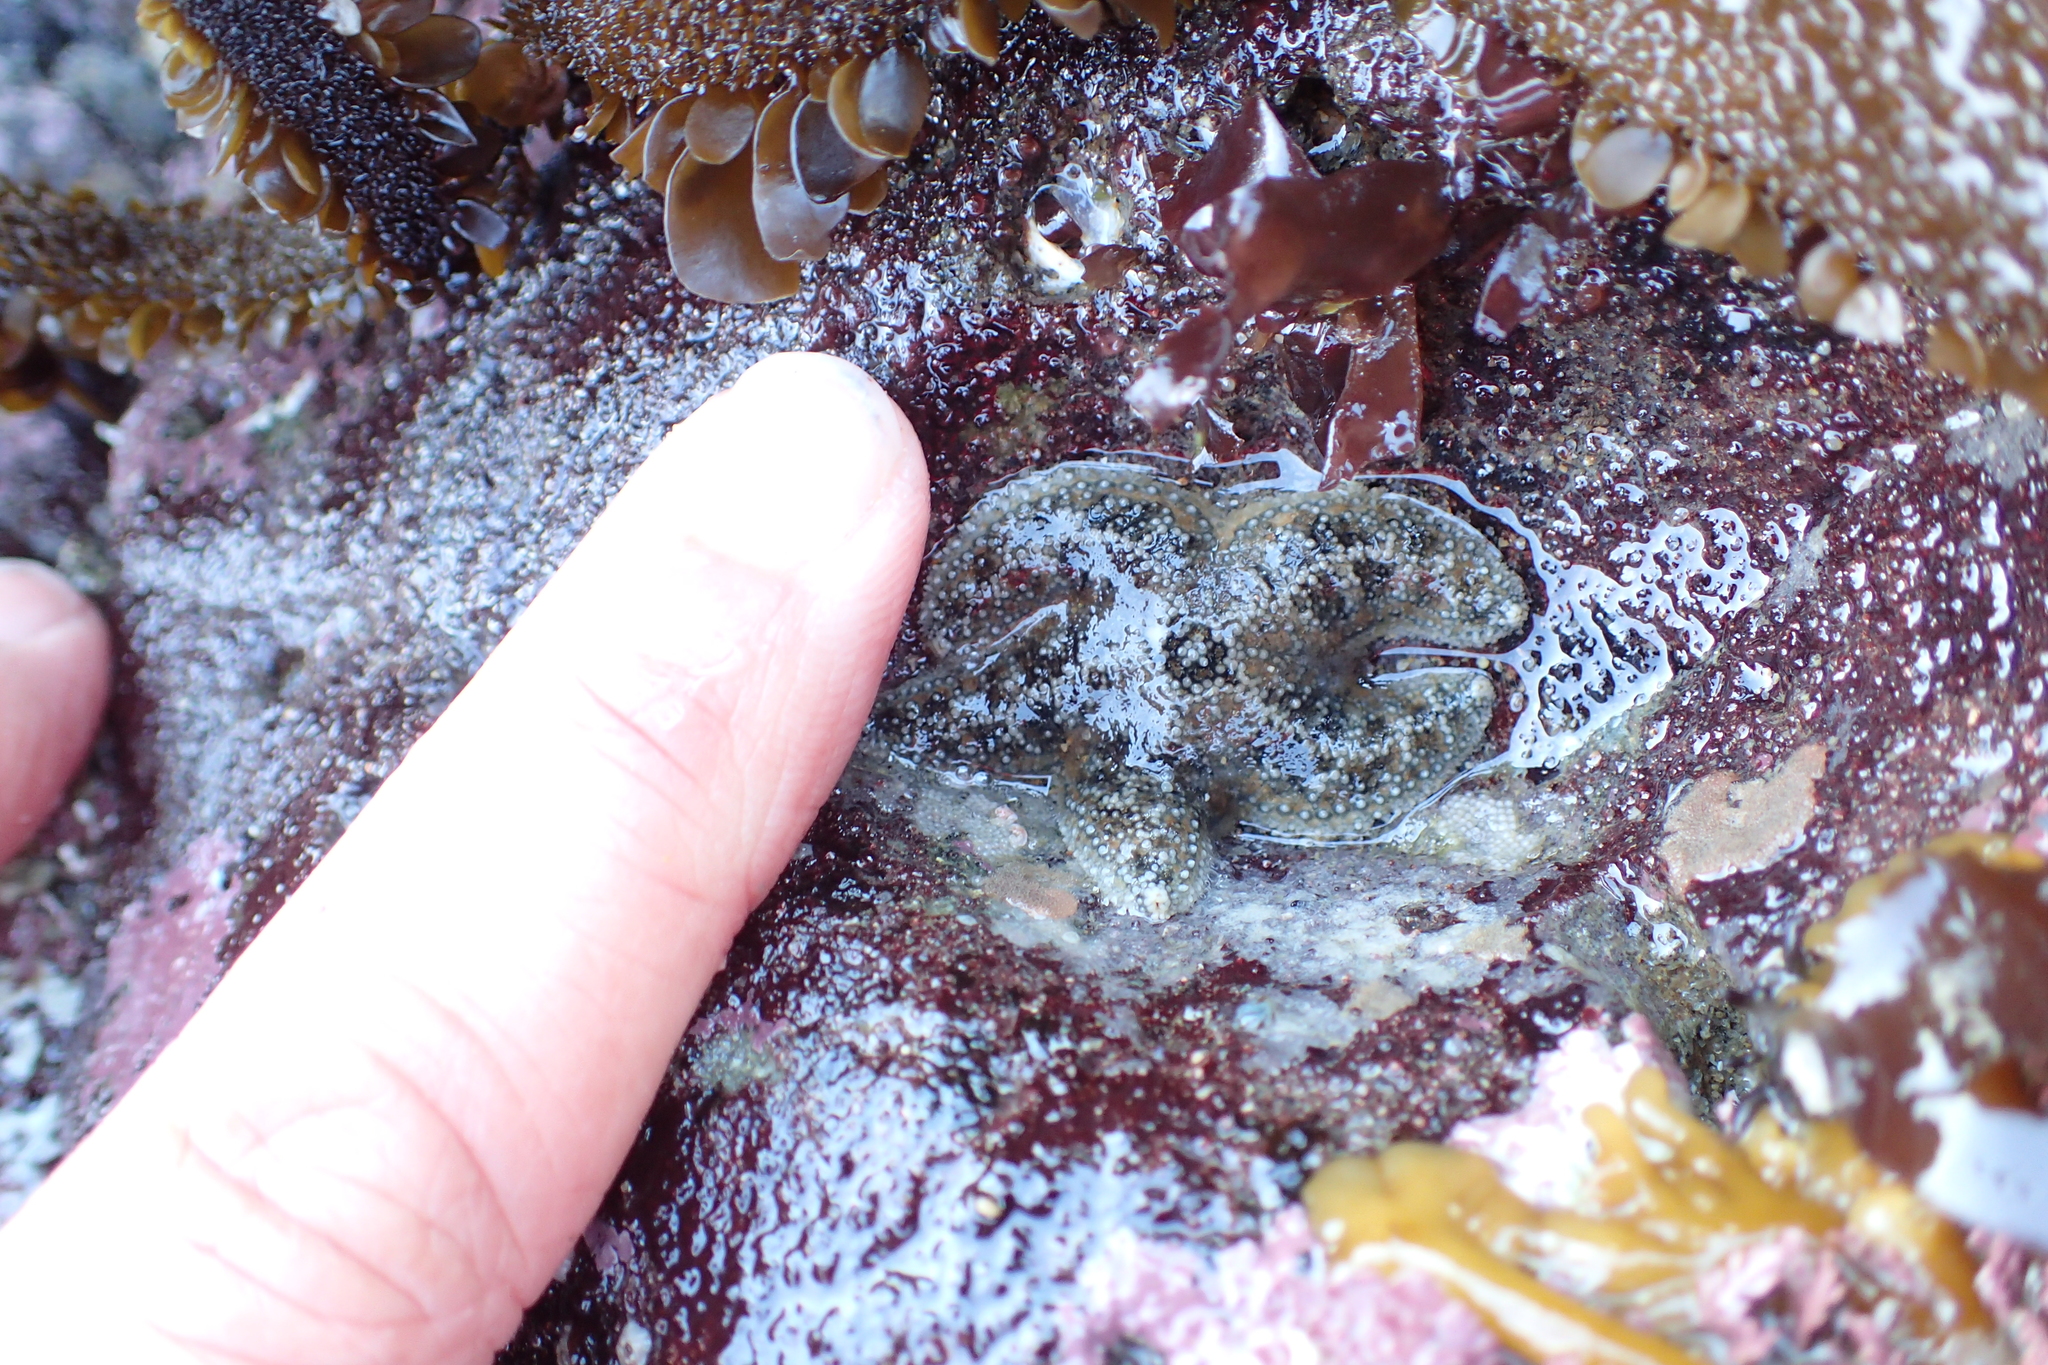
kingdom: Animalia
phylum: Echinodermata
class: Asteroidea
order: Forcipulatida
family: Asteriidae
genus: Pisaster
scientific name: Pisaster ochraceus
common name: Ochre stars
